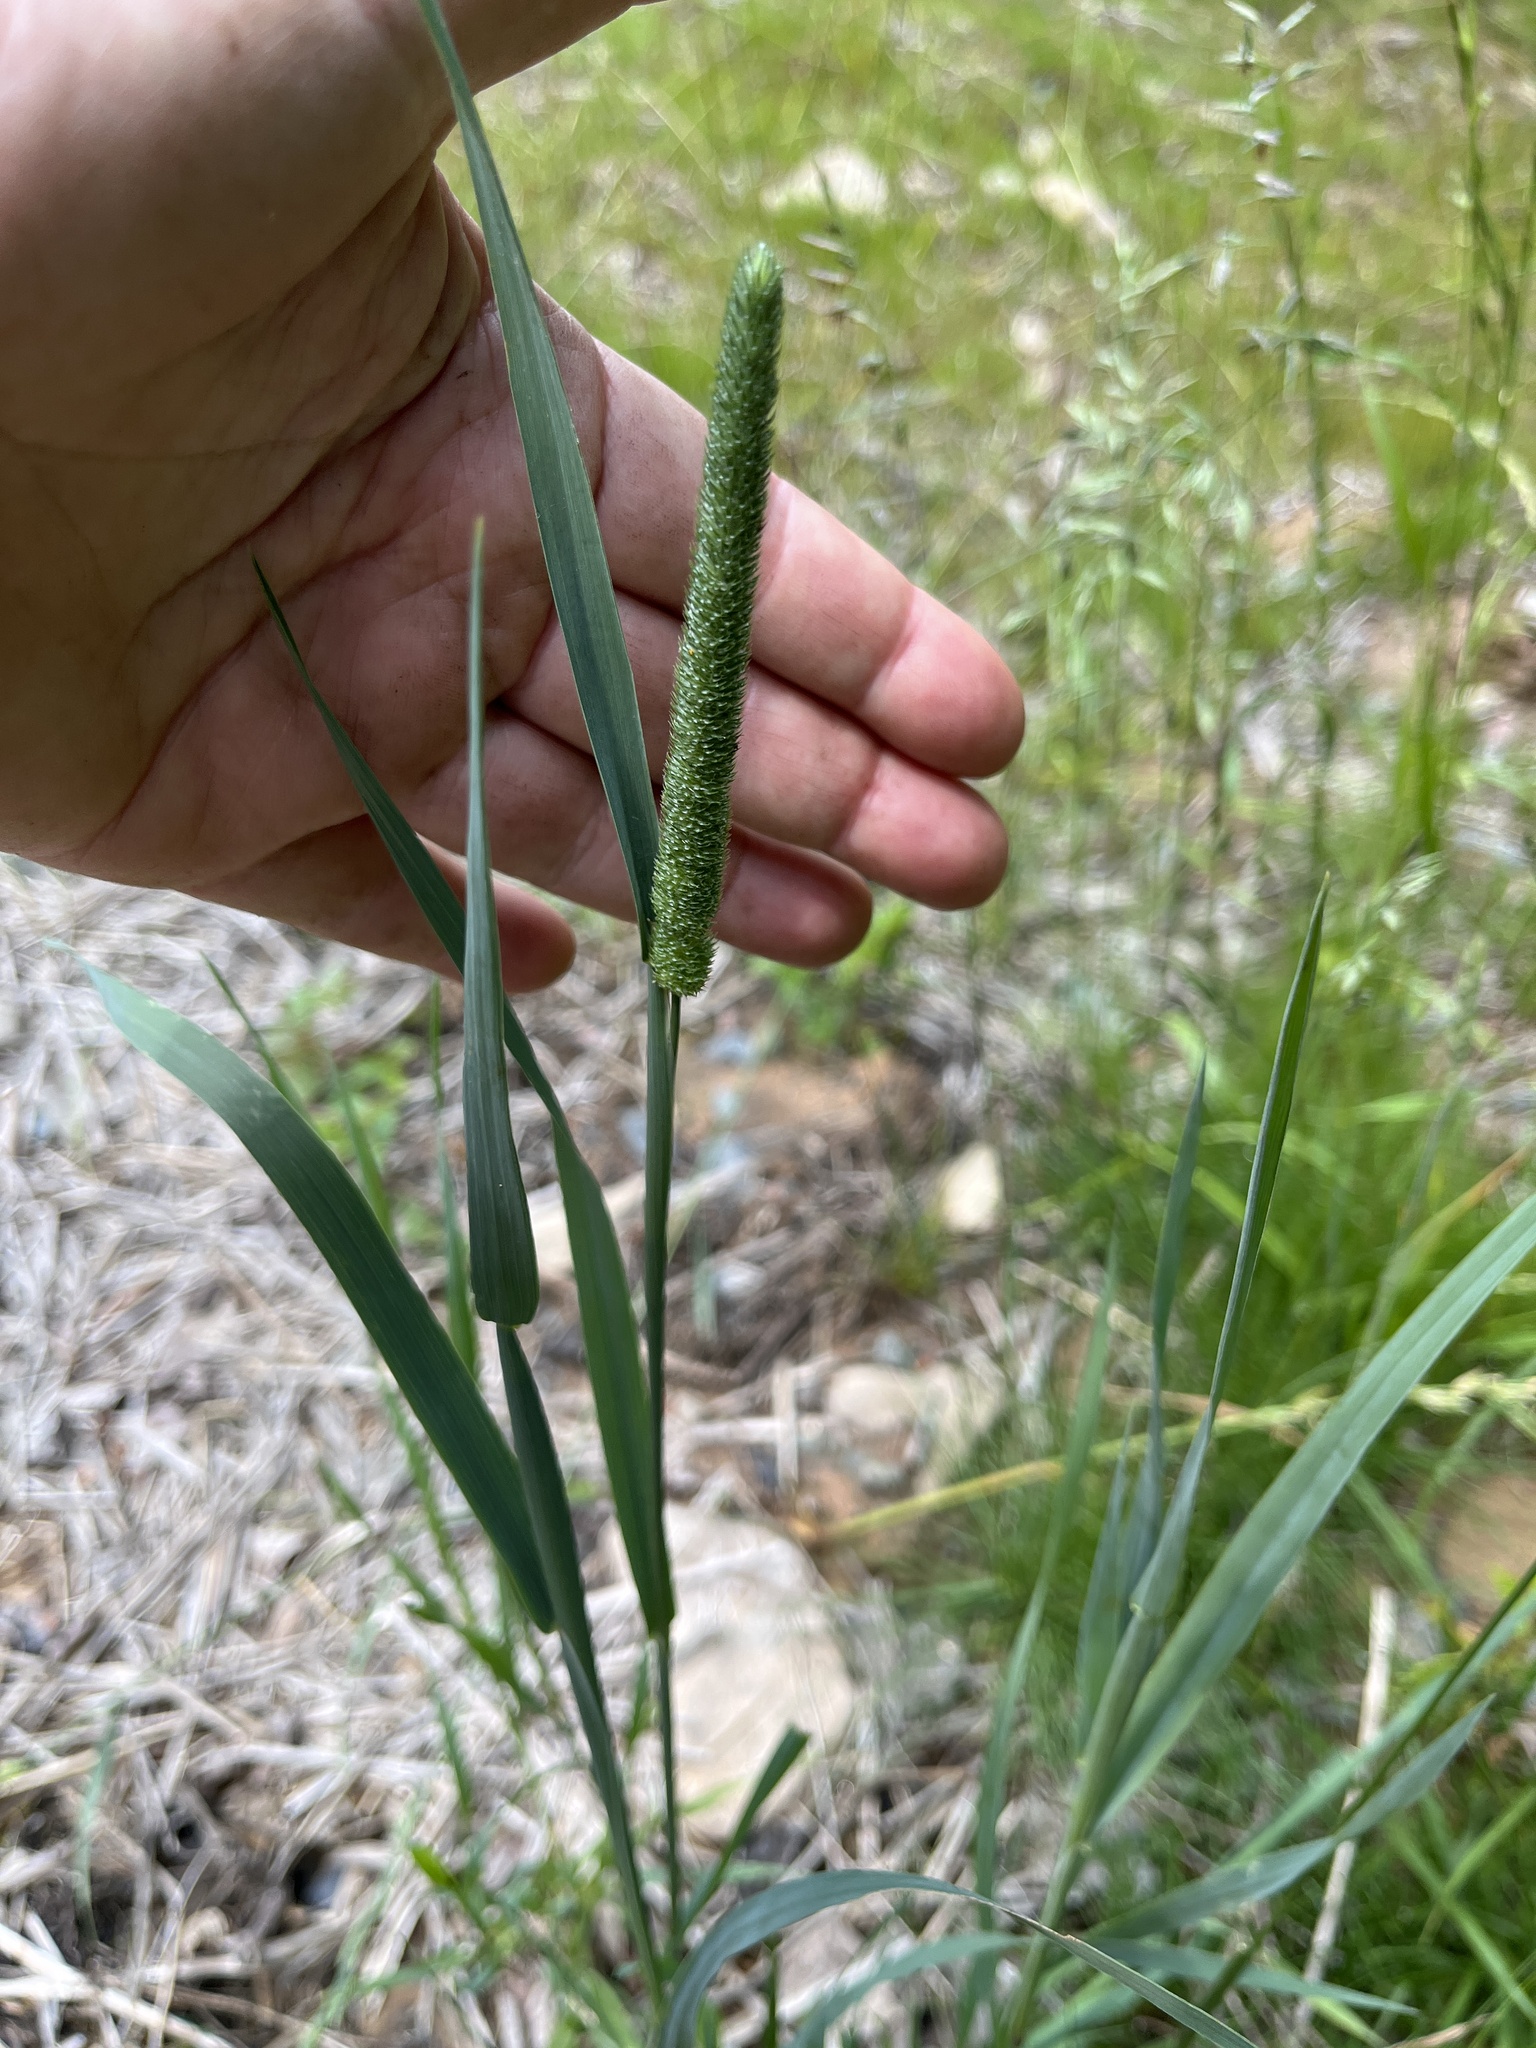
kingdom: Plantae
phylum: Tracheophyta
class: Liliopsida
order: Poales
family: Poaceae
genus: Phleum
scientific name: Phleum pratense
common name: Timothy grass
